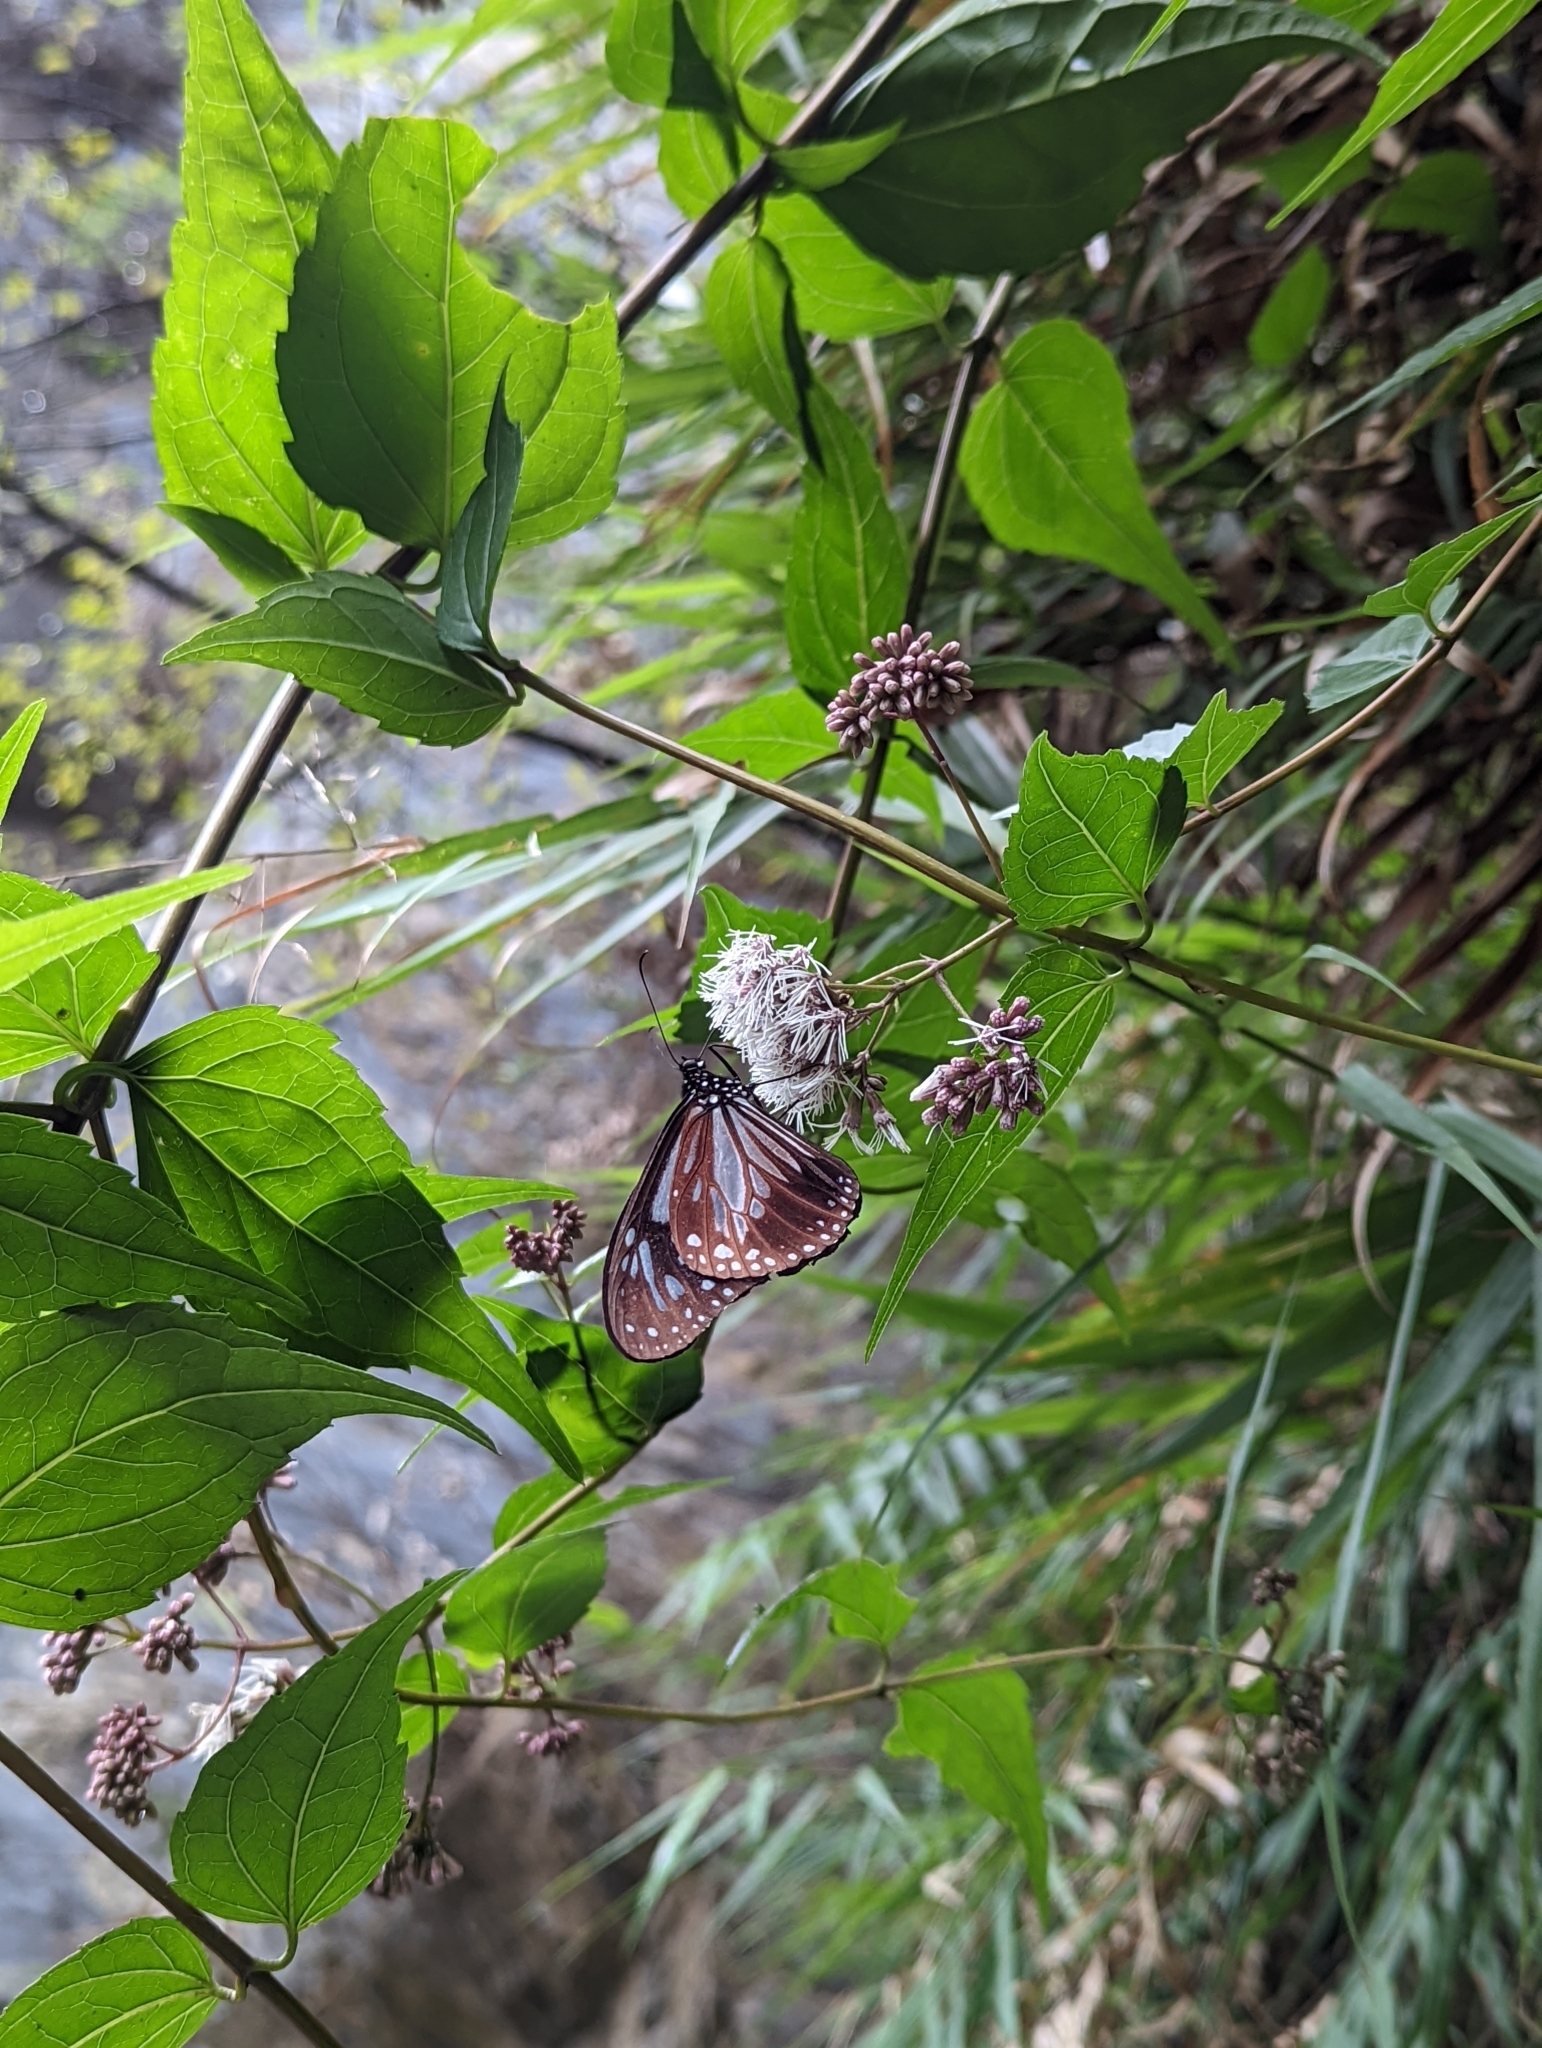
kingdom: Animalia
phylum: Arthropoda
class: Insecta
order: Lepidoptera
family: Nymphalidae
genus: Parantica
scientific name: Parantica melaneus
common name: Chocolate tiger
